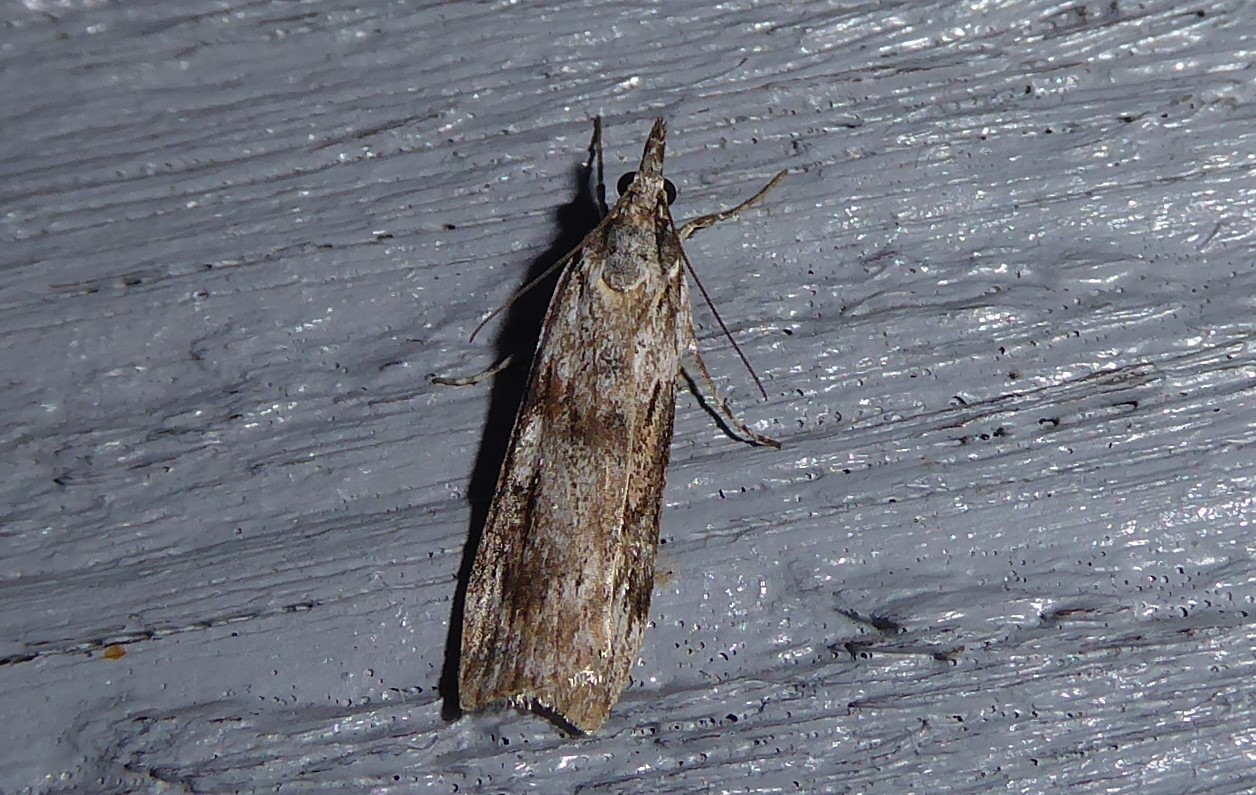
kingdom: Animalia
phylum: Arthropoda
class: Insecta
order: Lepidoptera
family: Crambidae
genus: Scoparia
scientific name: Scoparia halopis
